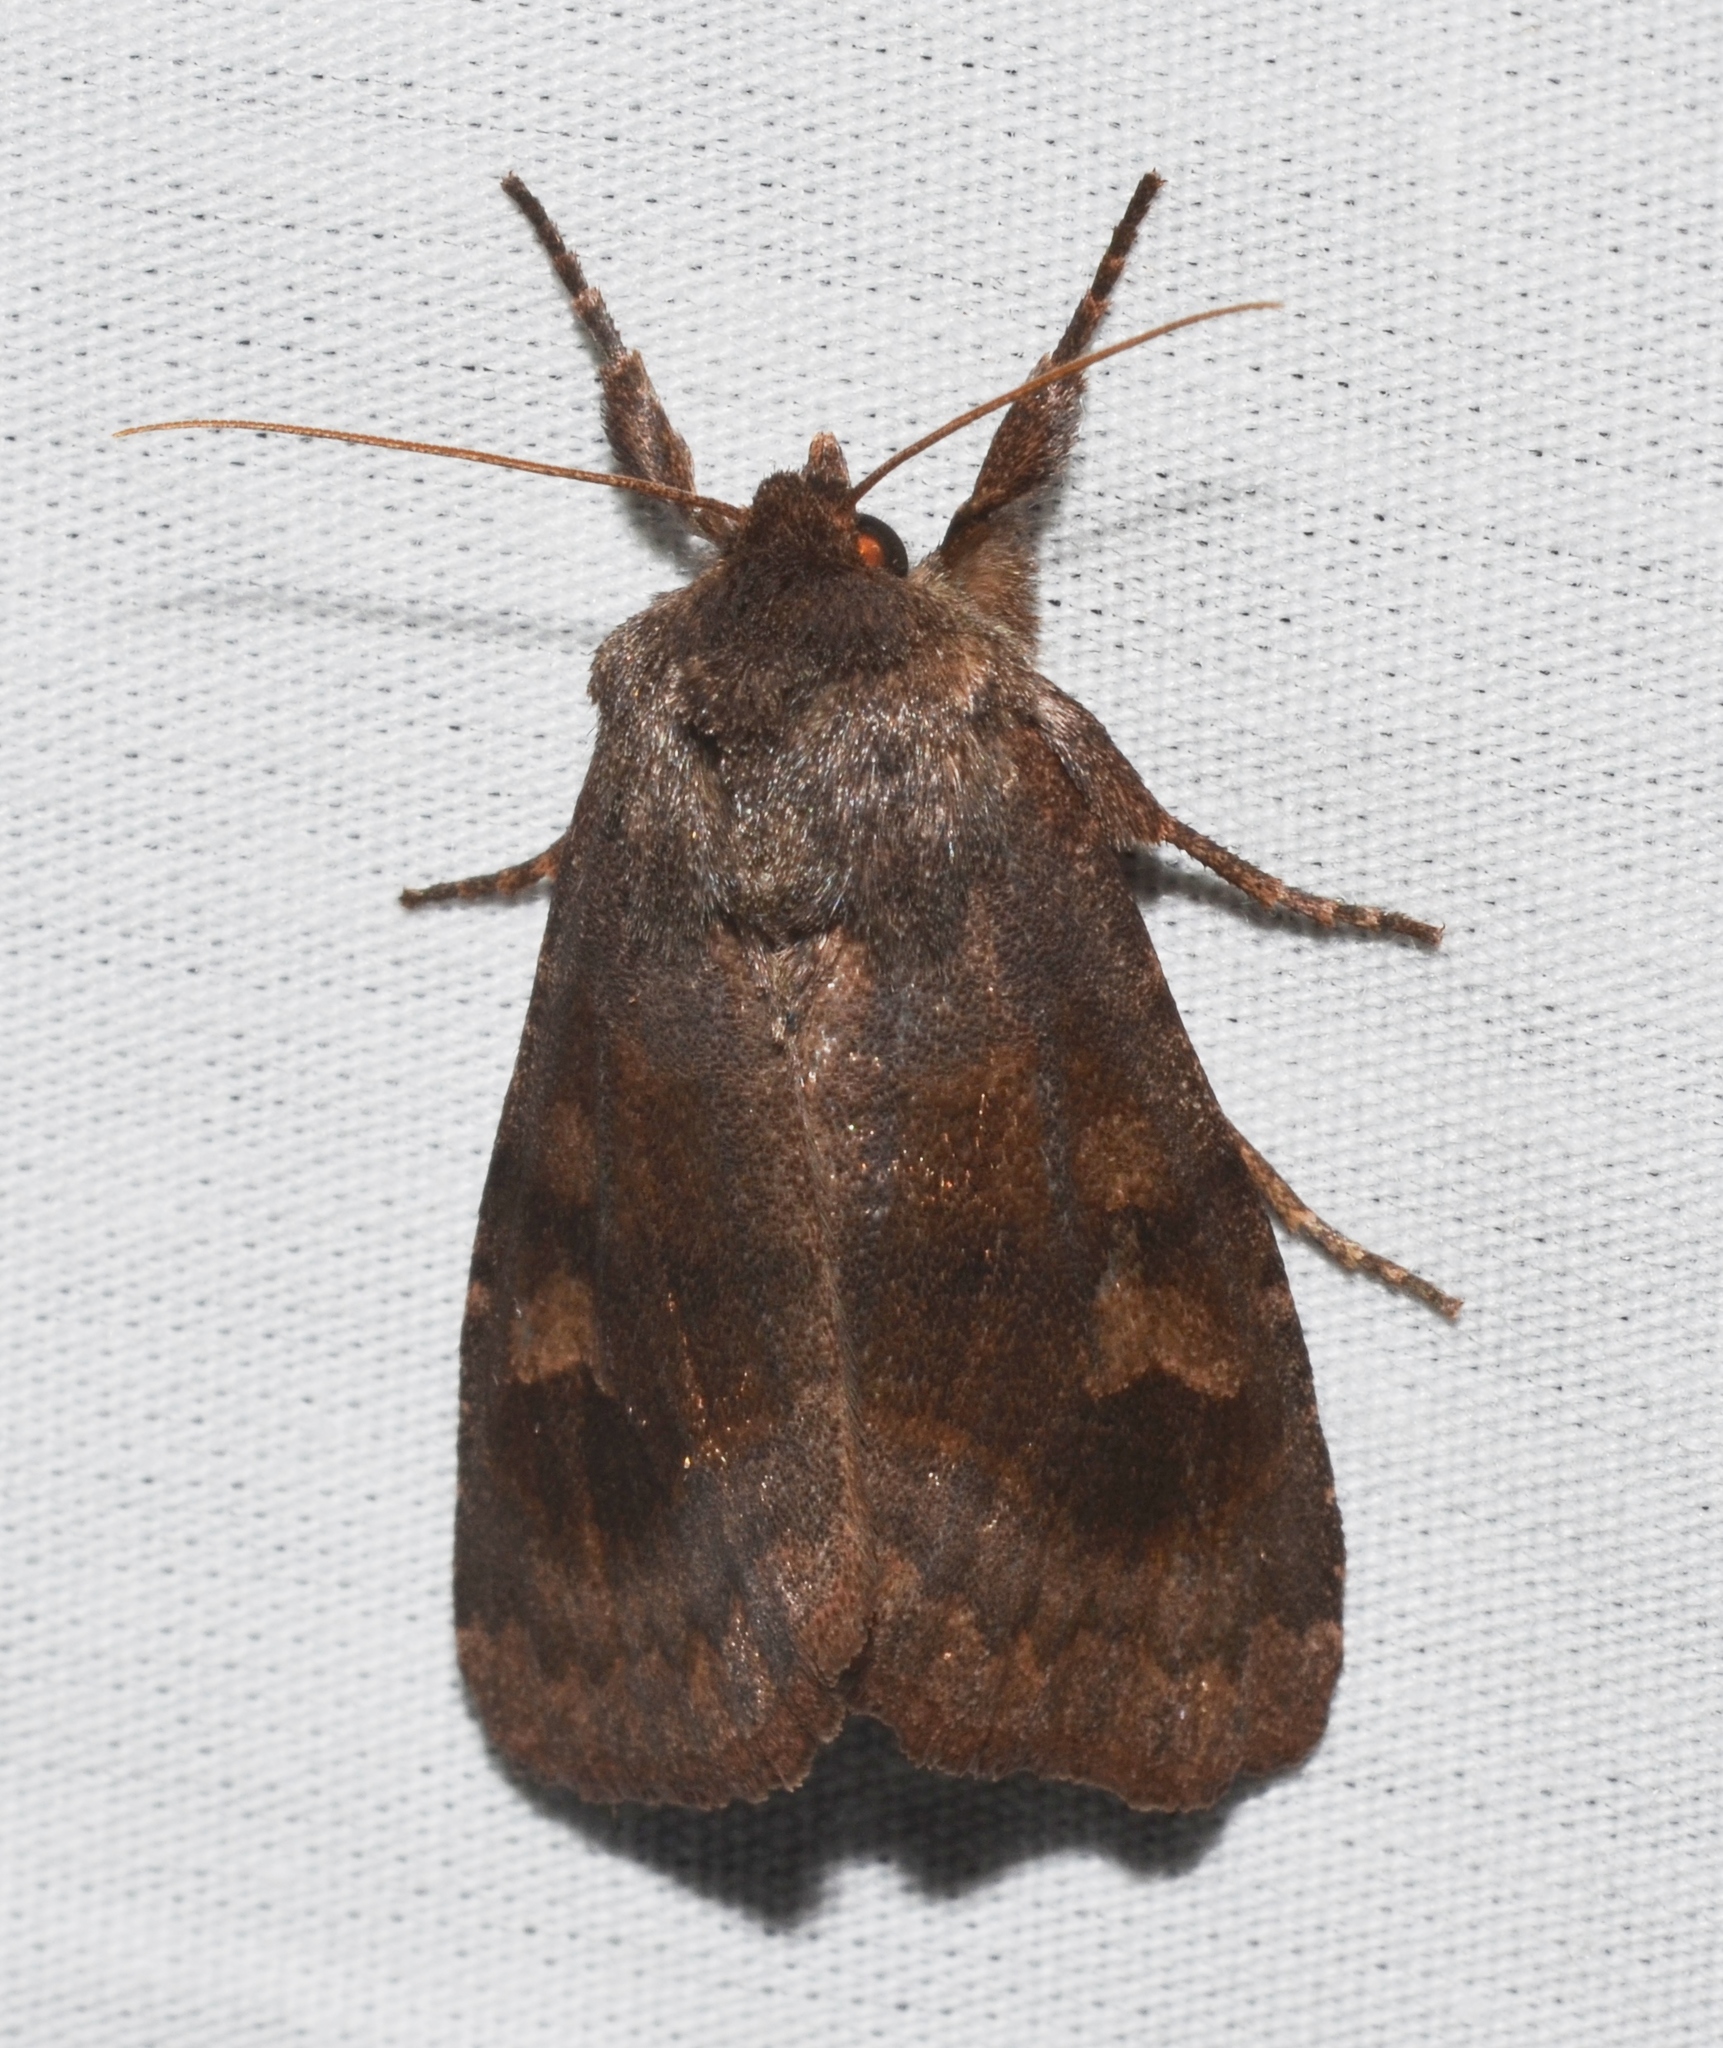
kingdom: Animalia
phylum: Arthropoda
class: Insecta
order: Lepidoptera
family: Noctuidae
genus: Nephelodes
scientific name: Nephelodes minians
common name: Bronzed cutworm
